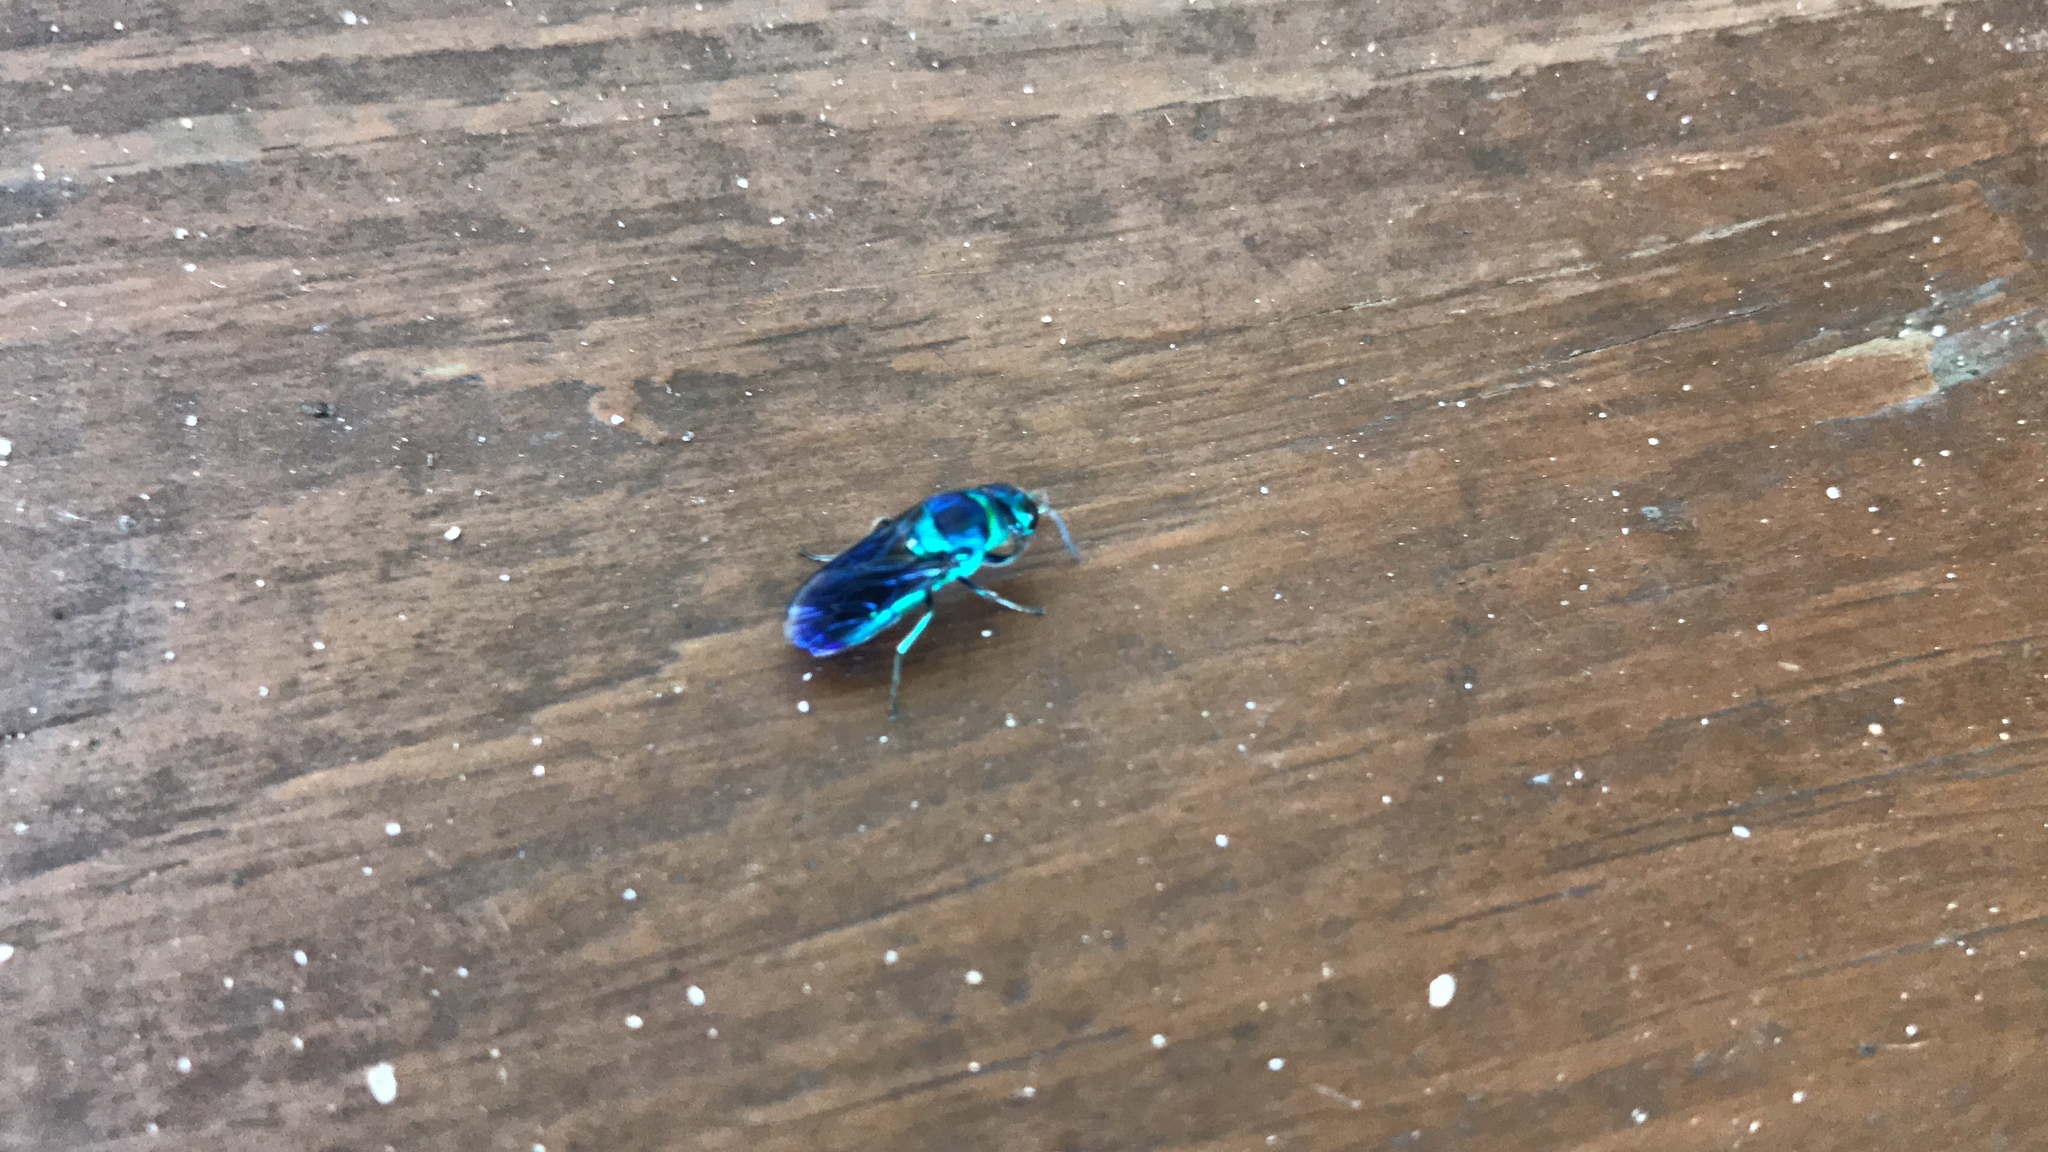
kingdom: Animalia
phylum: Arthropoda
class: Insecta
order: Hymenoptera
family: Chrysididae
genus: Chrysis
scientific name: Chrysis angolensis
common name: Cuckoo wasp
